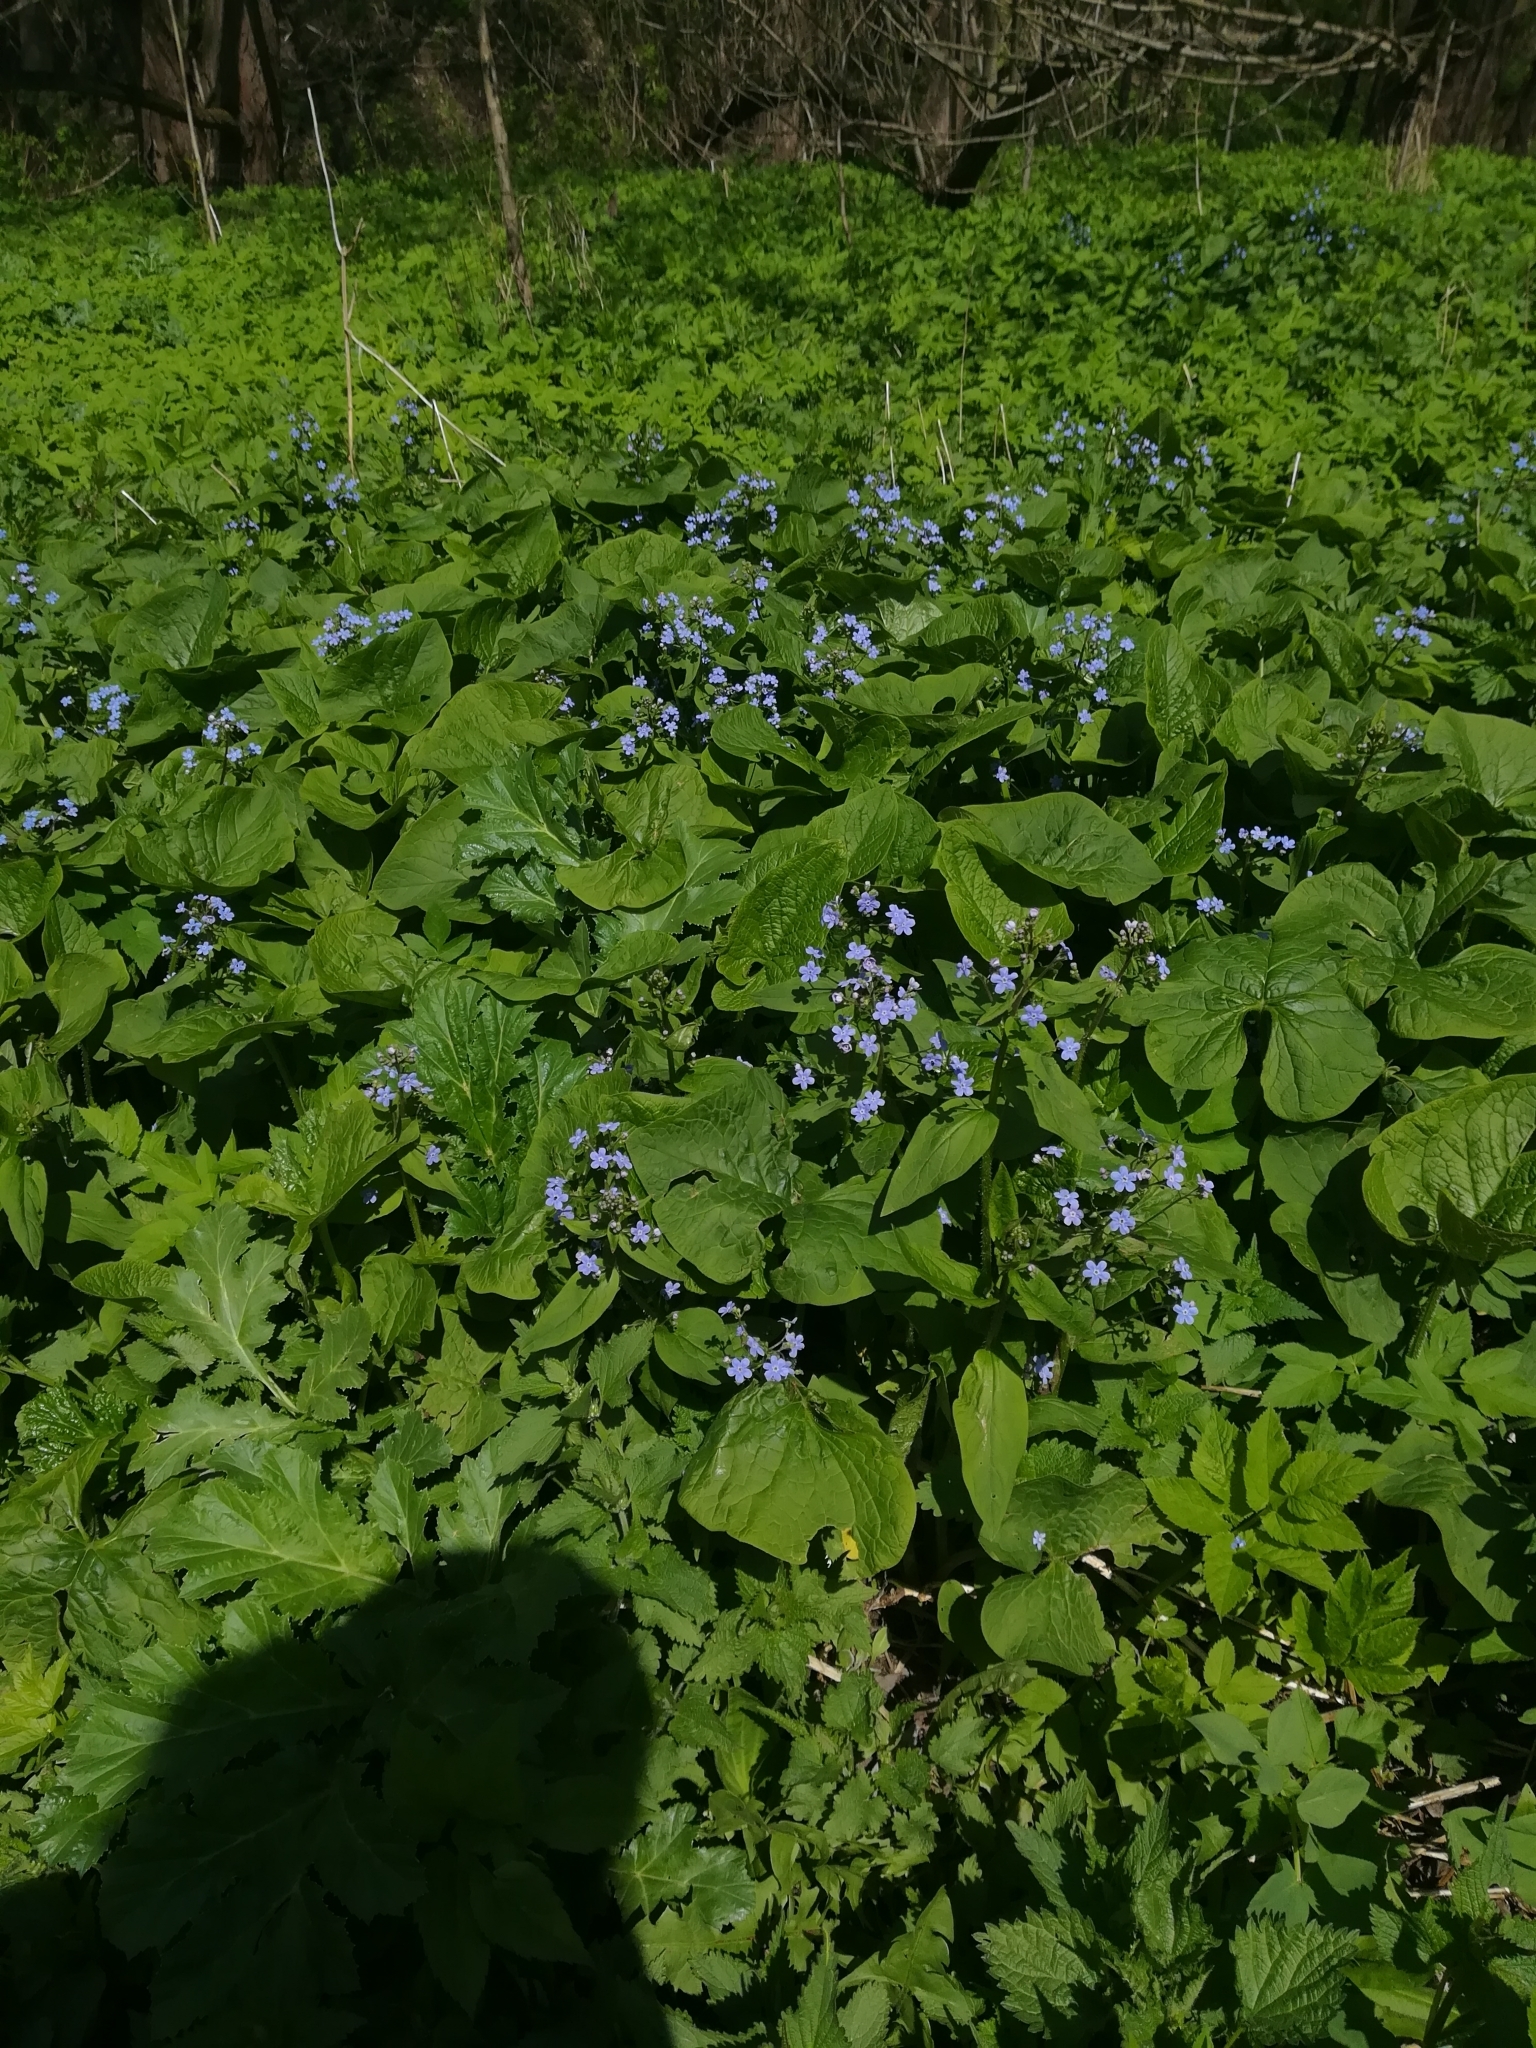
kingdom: Plantae
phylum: Tracheophyta
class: Magnoliopsida
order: Boraginales
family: Boraginaceae
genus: Brunnera
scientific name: Brunnera sibirica
